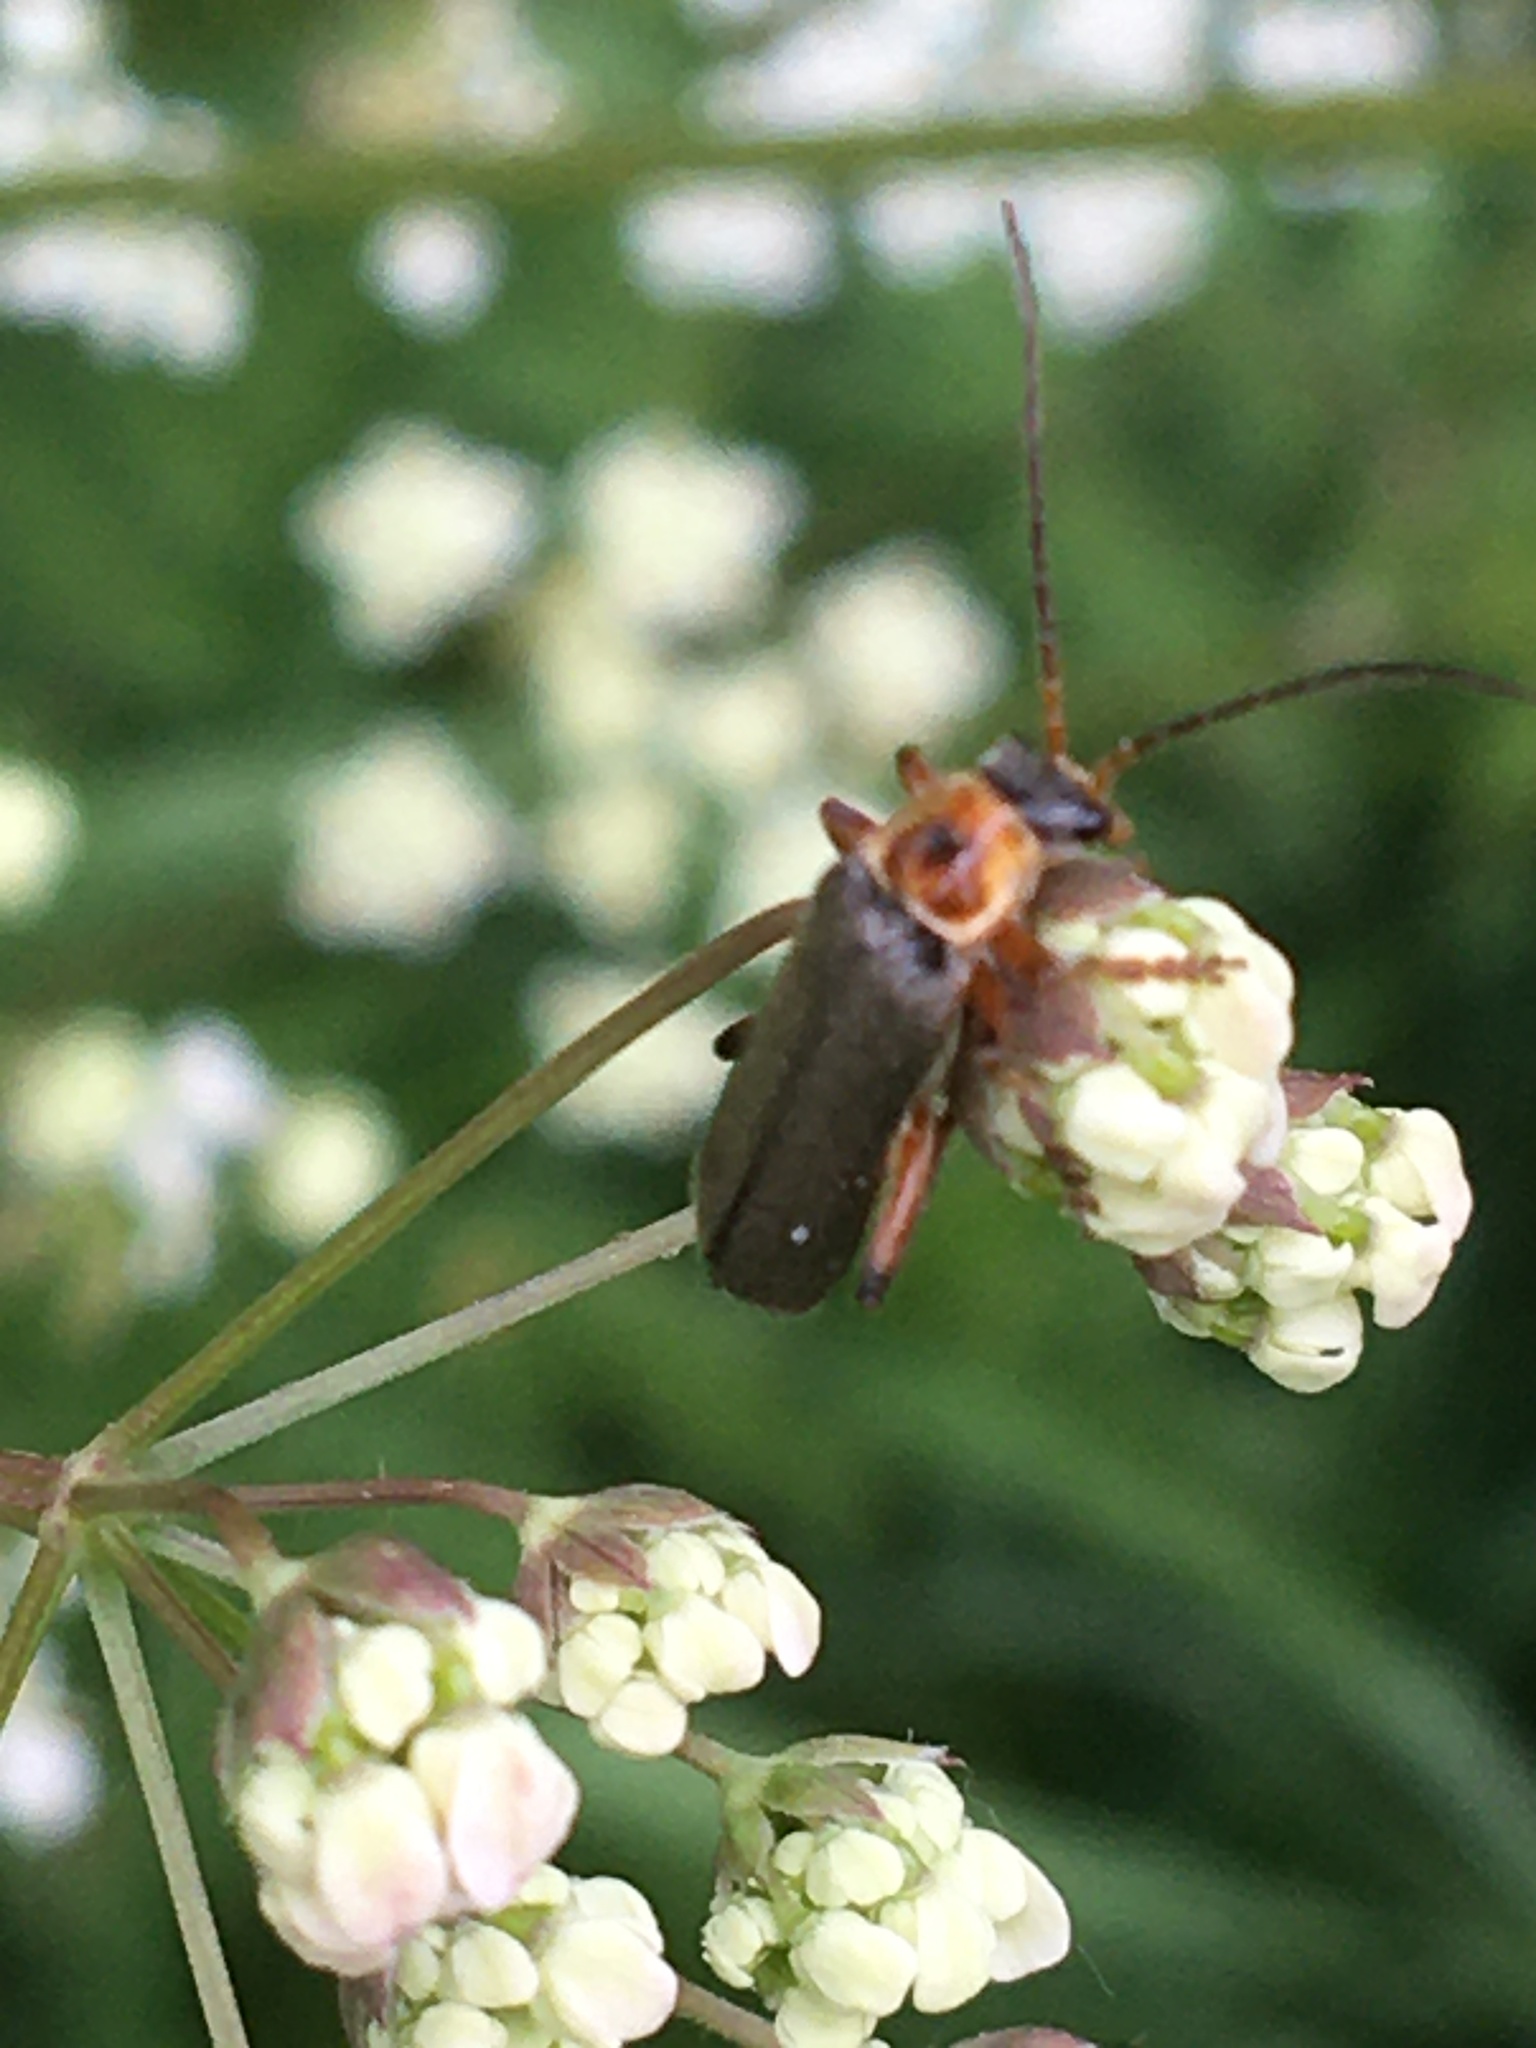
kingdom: Animalia
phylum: Arthropoda
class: Insecta
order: Coleoptera
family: Cantharidae
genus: Cantharis
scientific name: Cantharis nigricans
